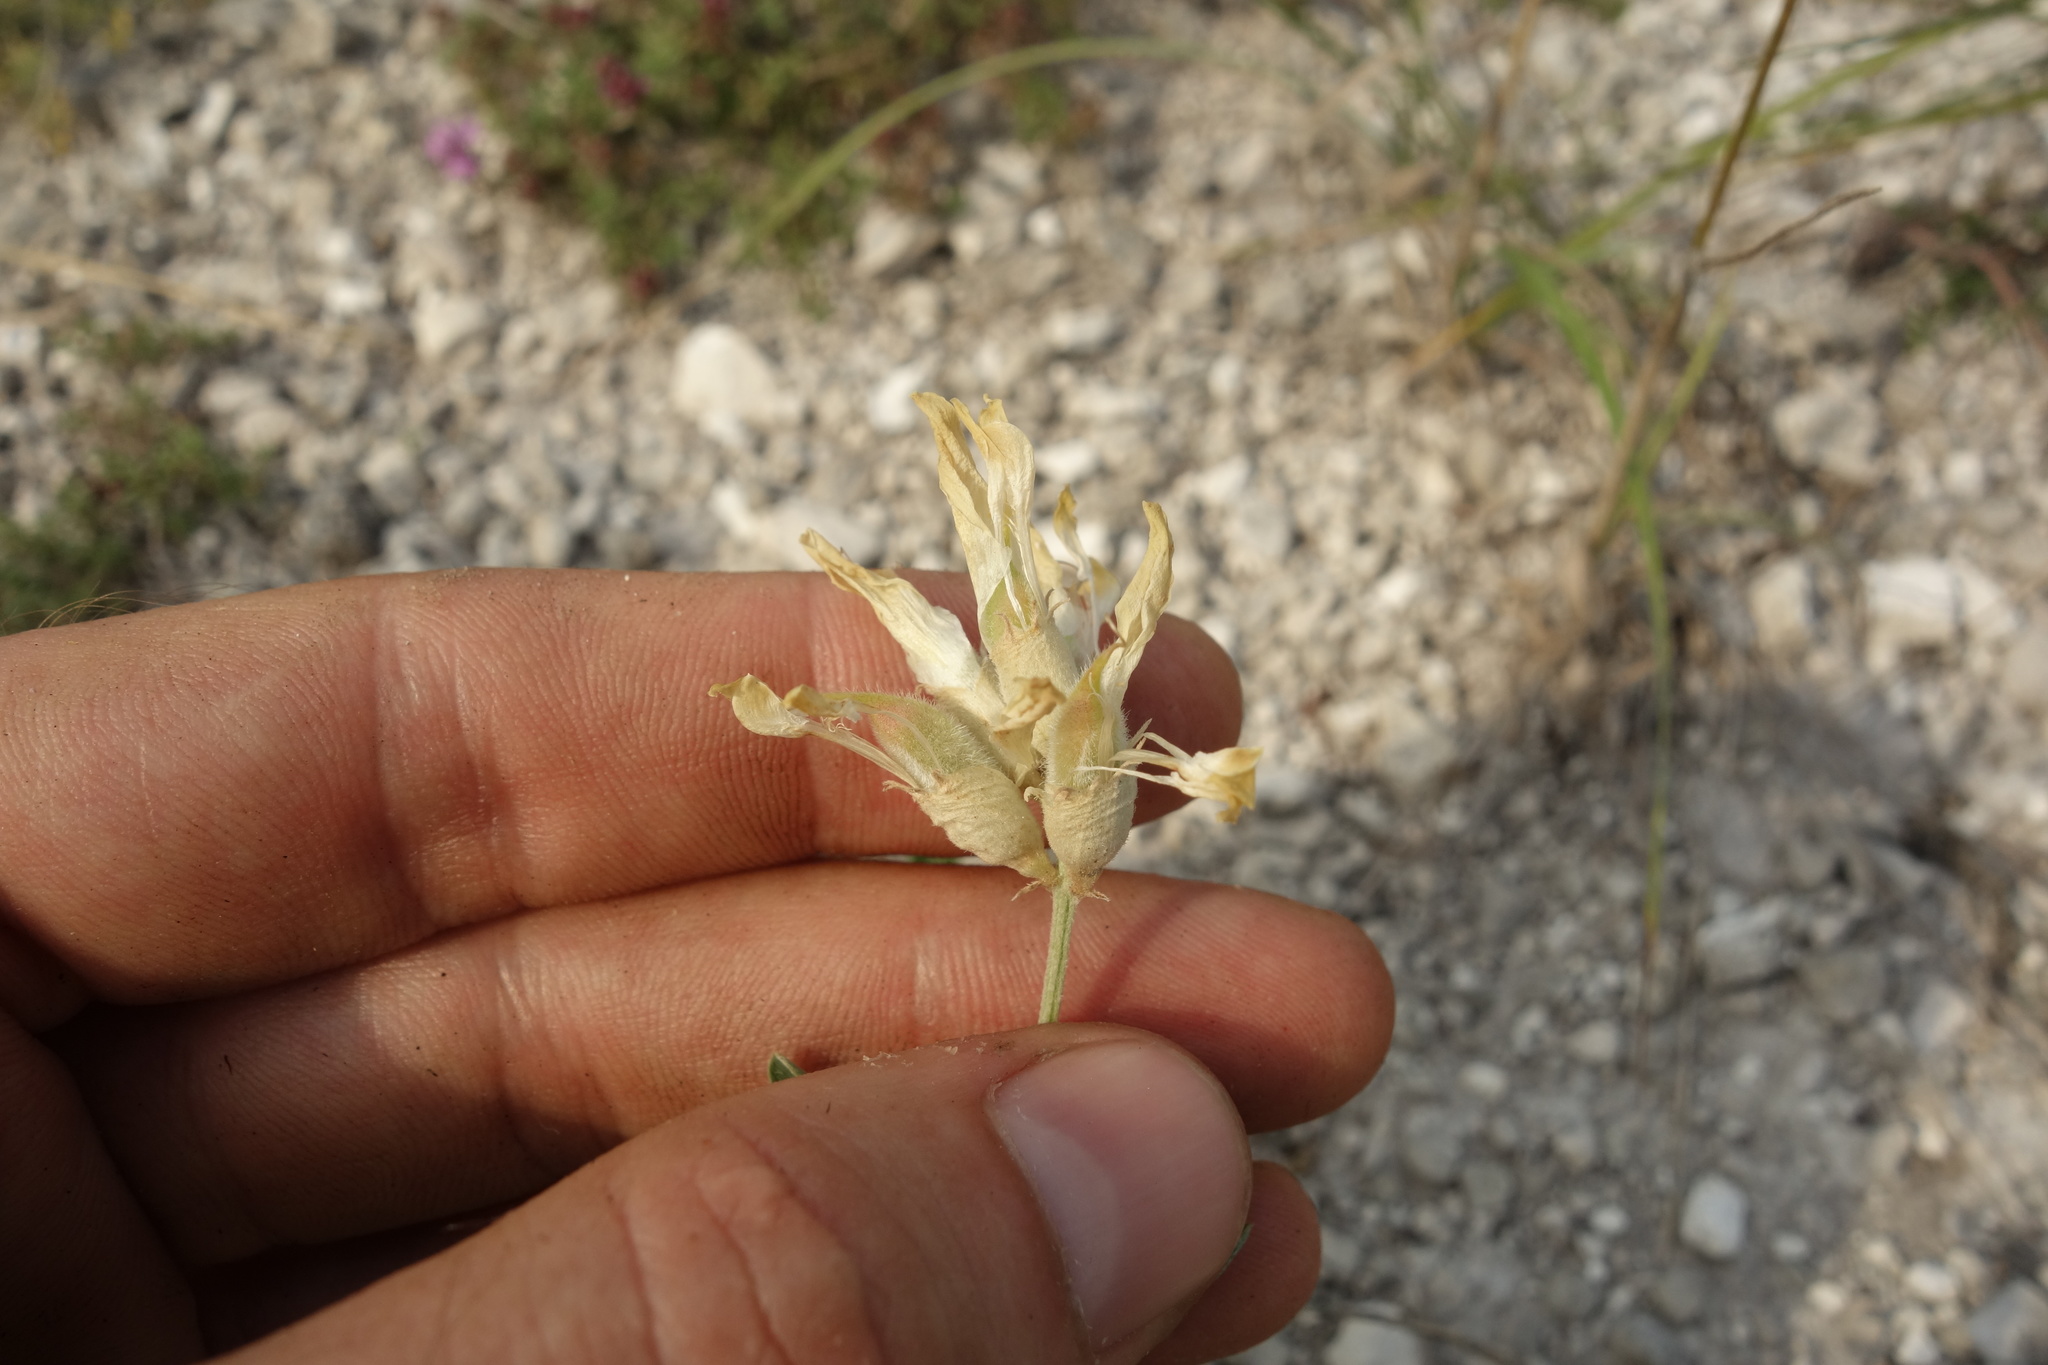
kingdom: Plantae
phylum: Tracheophyta
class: Magnoliopsida
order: Fabales
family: Fabaceae
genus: Astragalus
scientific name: Astragalus albicaulis
